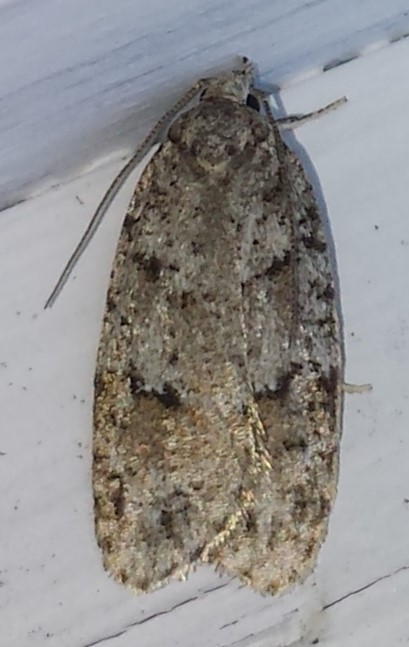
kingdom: Animalia
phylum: Arthropoda
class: Insecta
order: Lepidoptera
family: Depressariidae
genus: Bibarrambla
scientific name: Bibarrambla allenella
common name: Bog bibarrambla moth
